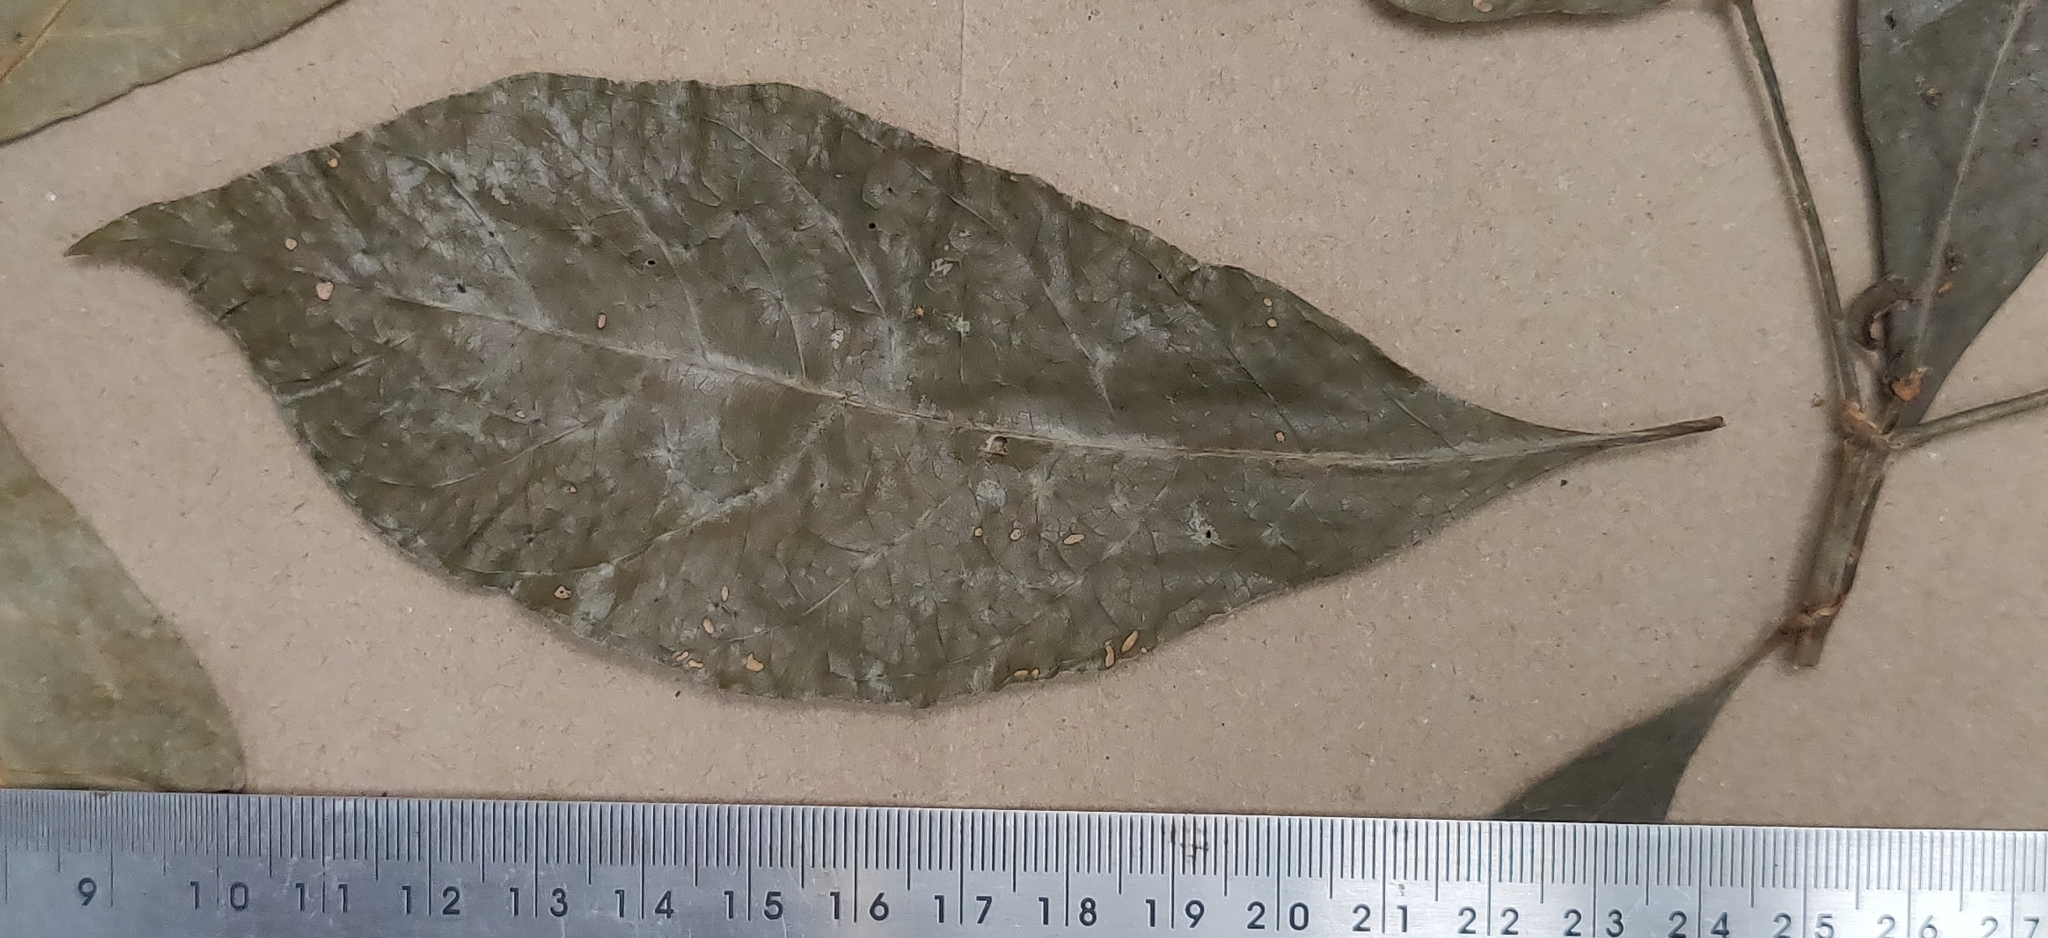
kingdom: Plantae
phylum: Tracheophyta
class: Magnoliopsida
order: Gentianales
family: Rubiaceae
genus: Pavetta
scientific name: Pavetta indica
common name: Indian pavetta
